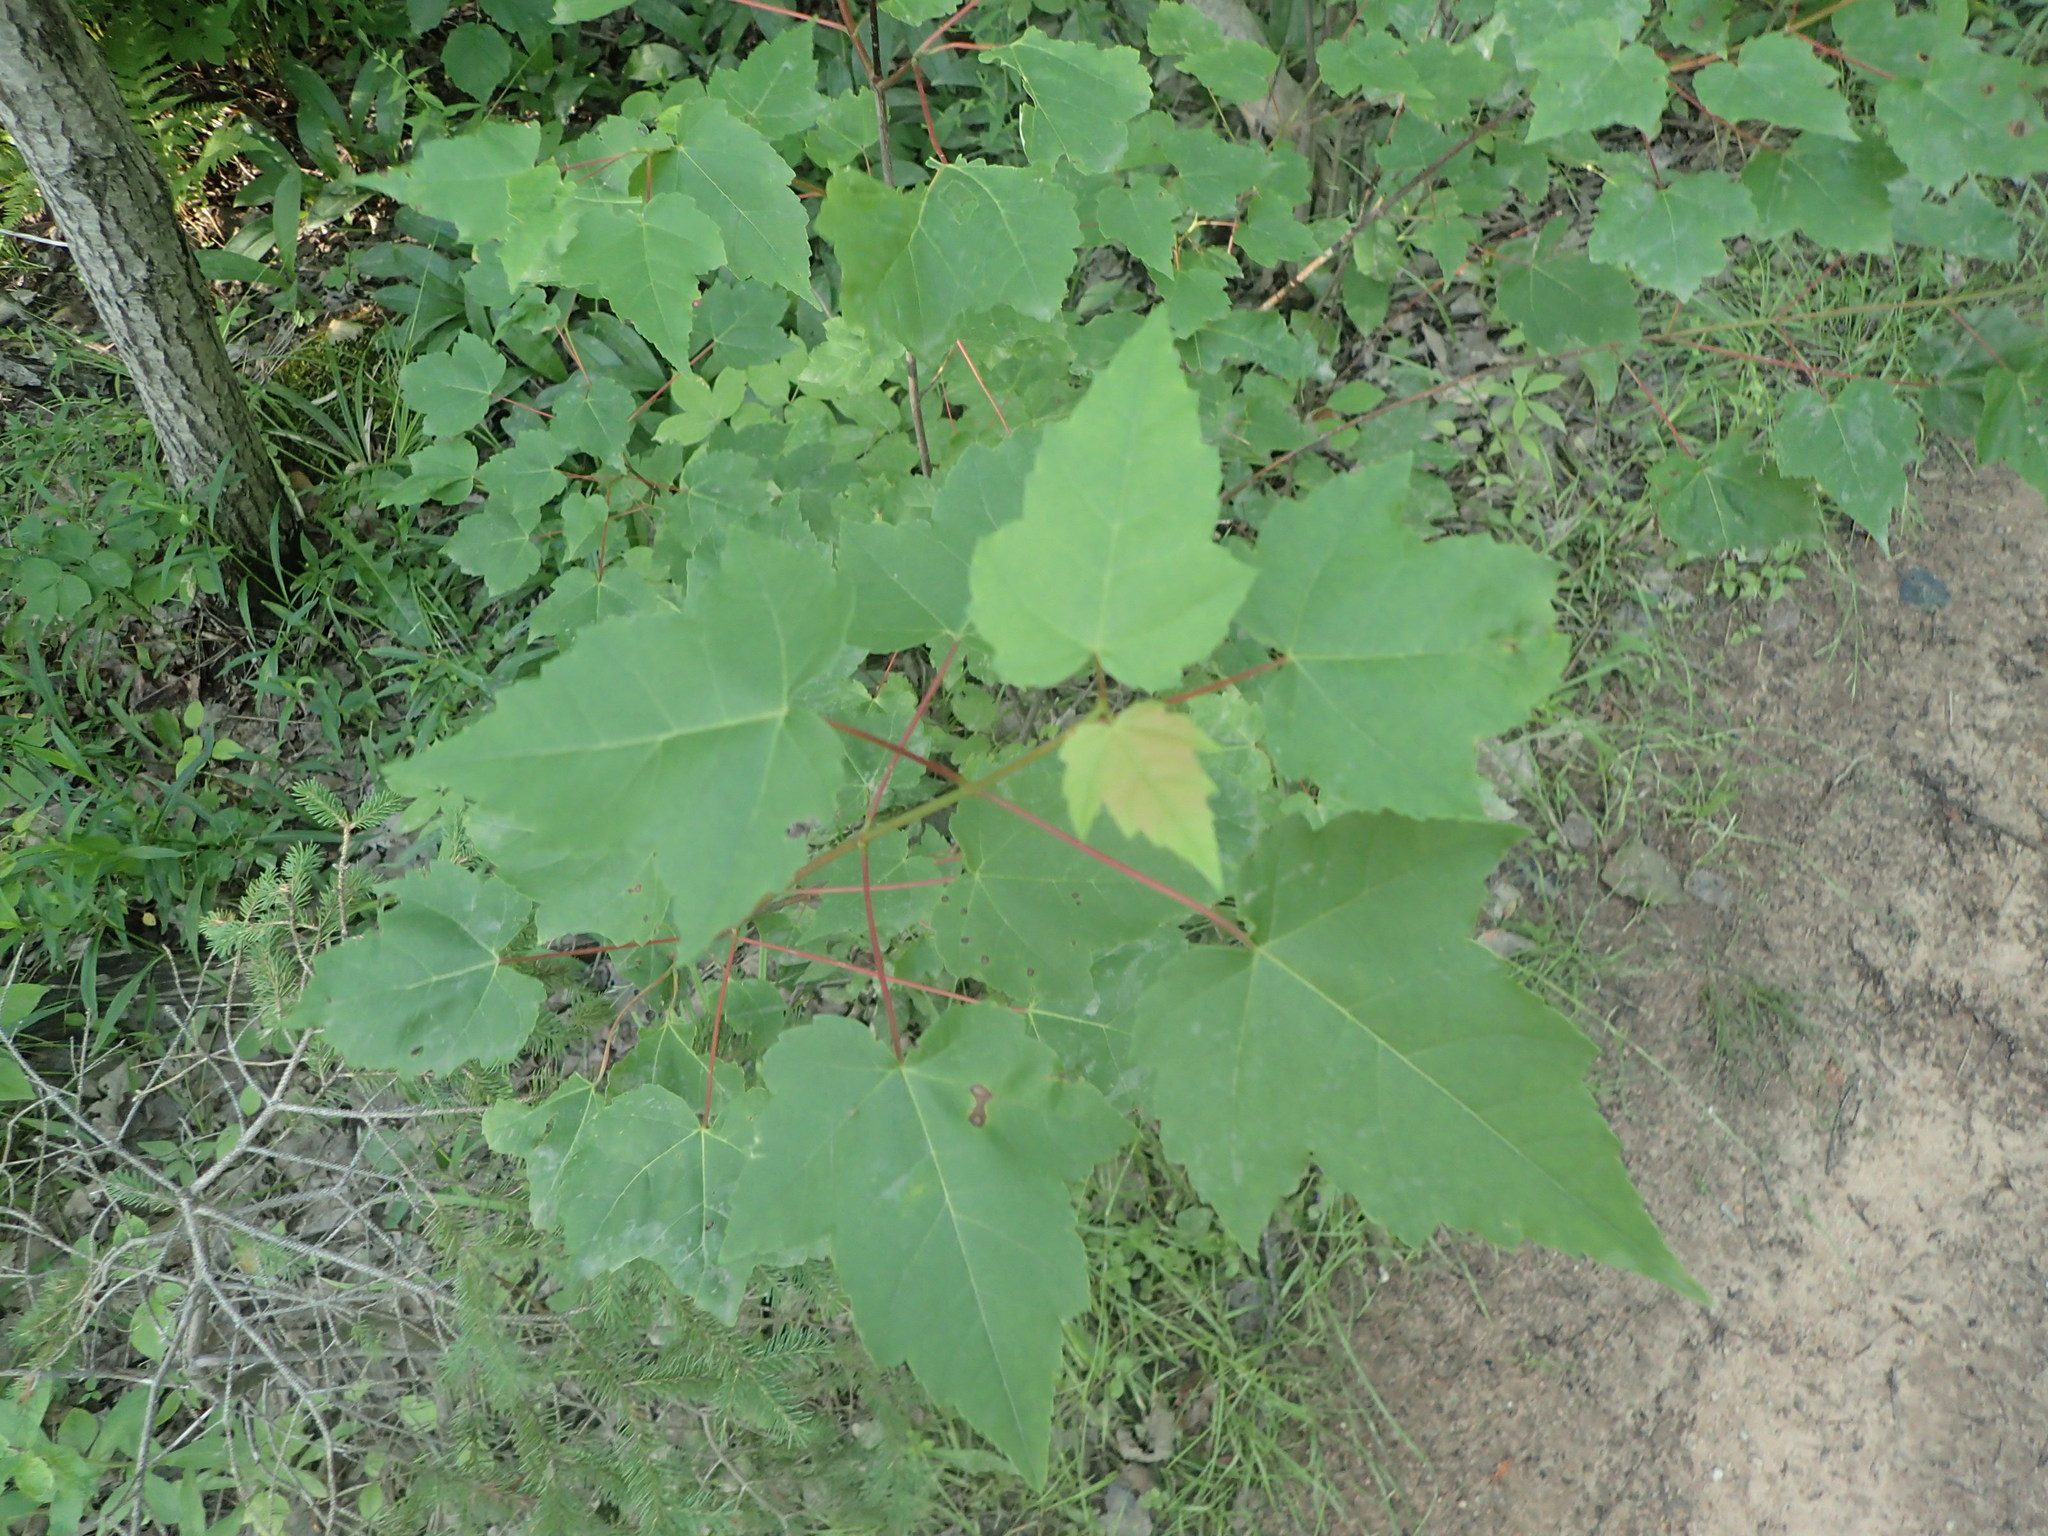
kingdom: Plantae
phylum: Tracheophyta
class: Magnoliopsida
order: Sapindales
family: Sapindaceae
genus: Acer
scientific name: Acer rubrum
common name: Red maple
